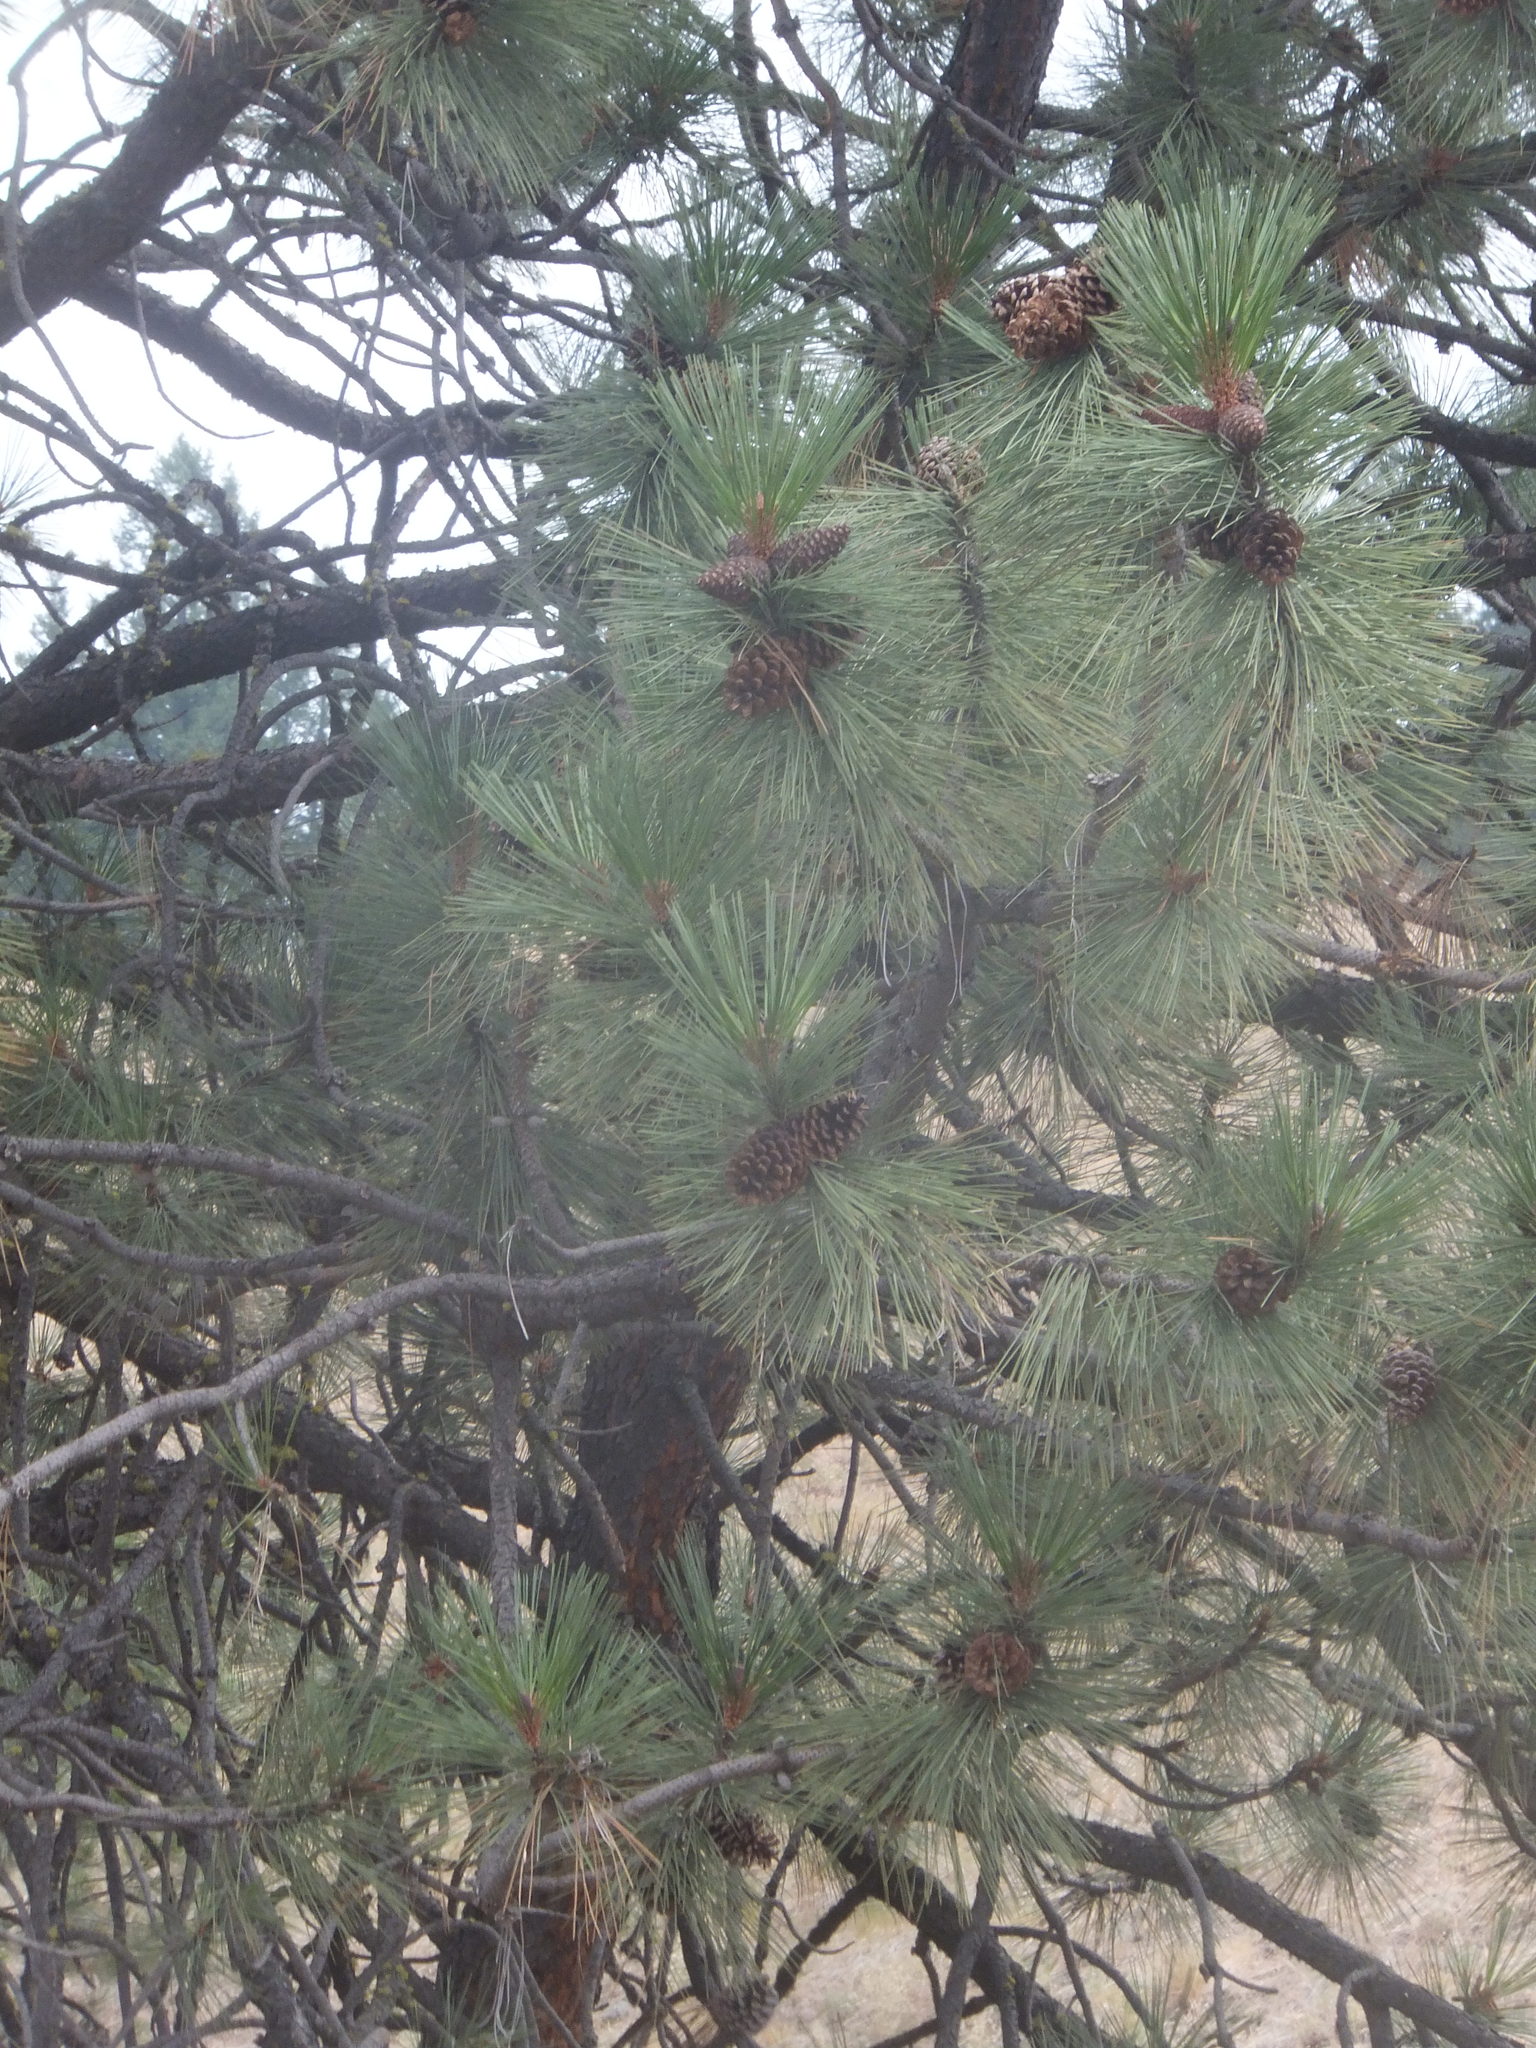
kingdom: Plantae
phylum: Tracheophyta
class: Pinopsida
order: Pinales
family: Pinaceae
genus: Pinus
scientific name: Pinus ponderosa
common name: Western yellow-pine
